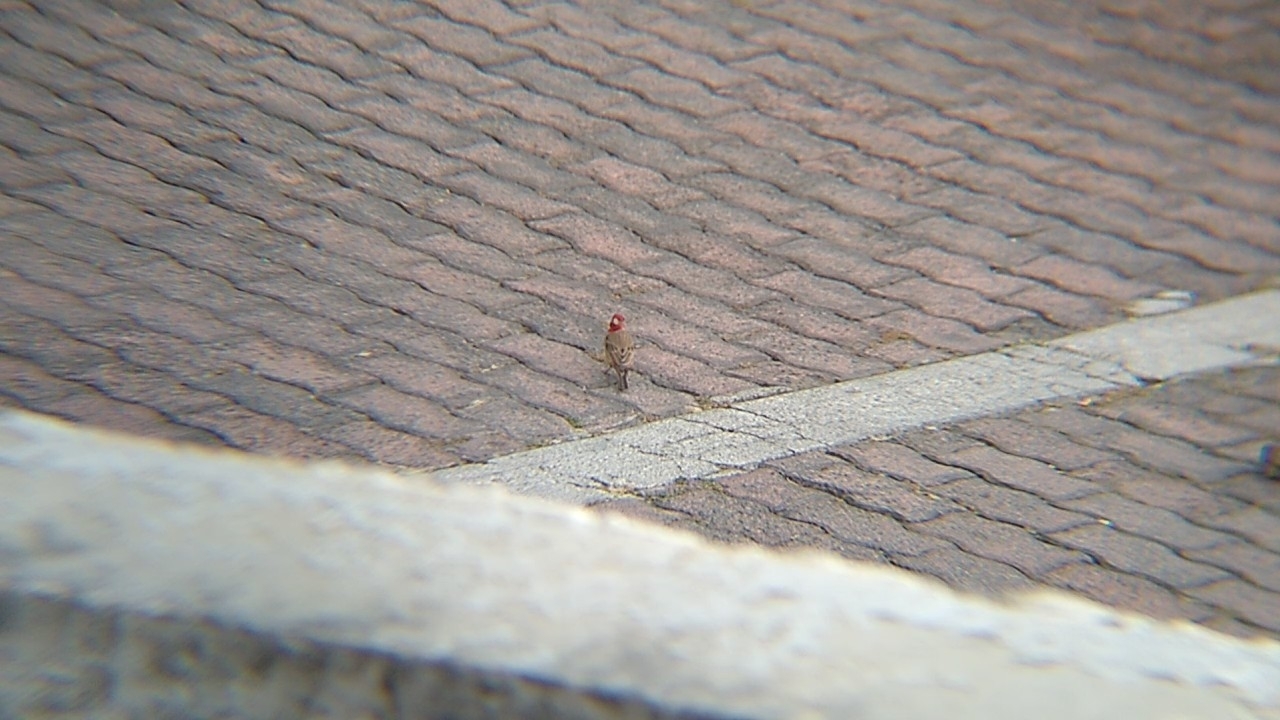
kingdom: Animalia
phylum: Chordata
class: Aves
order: Passeriformes
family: Fringillidae
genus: Haemorhous
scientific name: Haemorhous mexicanus
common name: House finch
